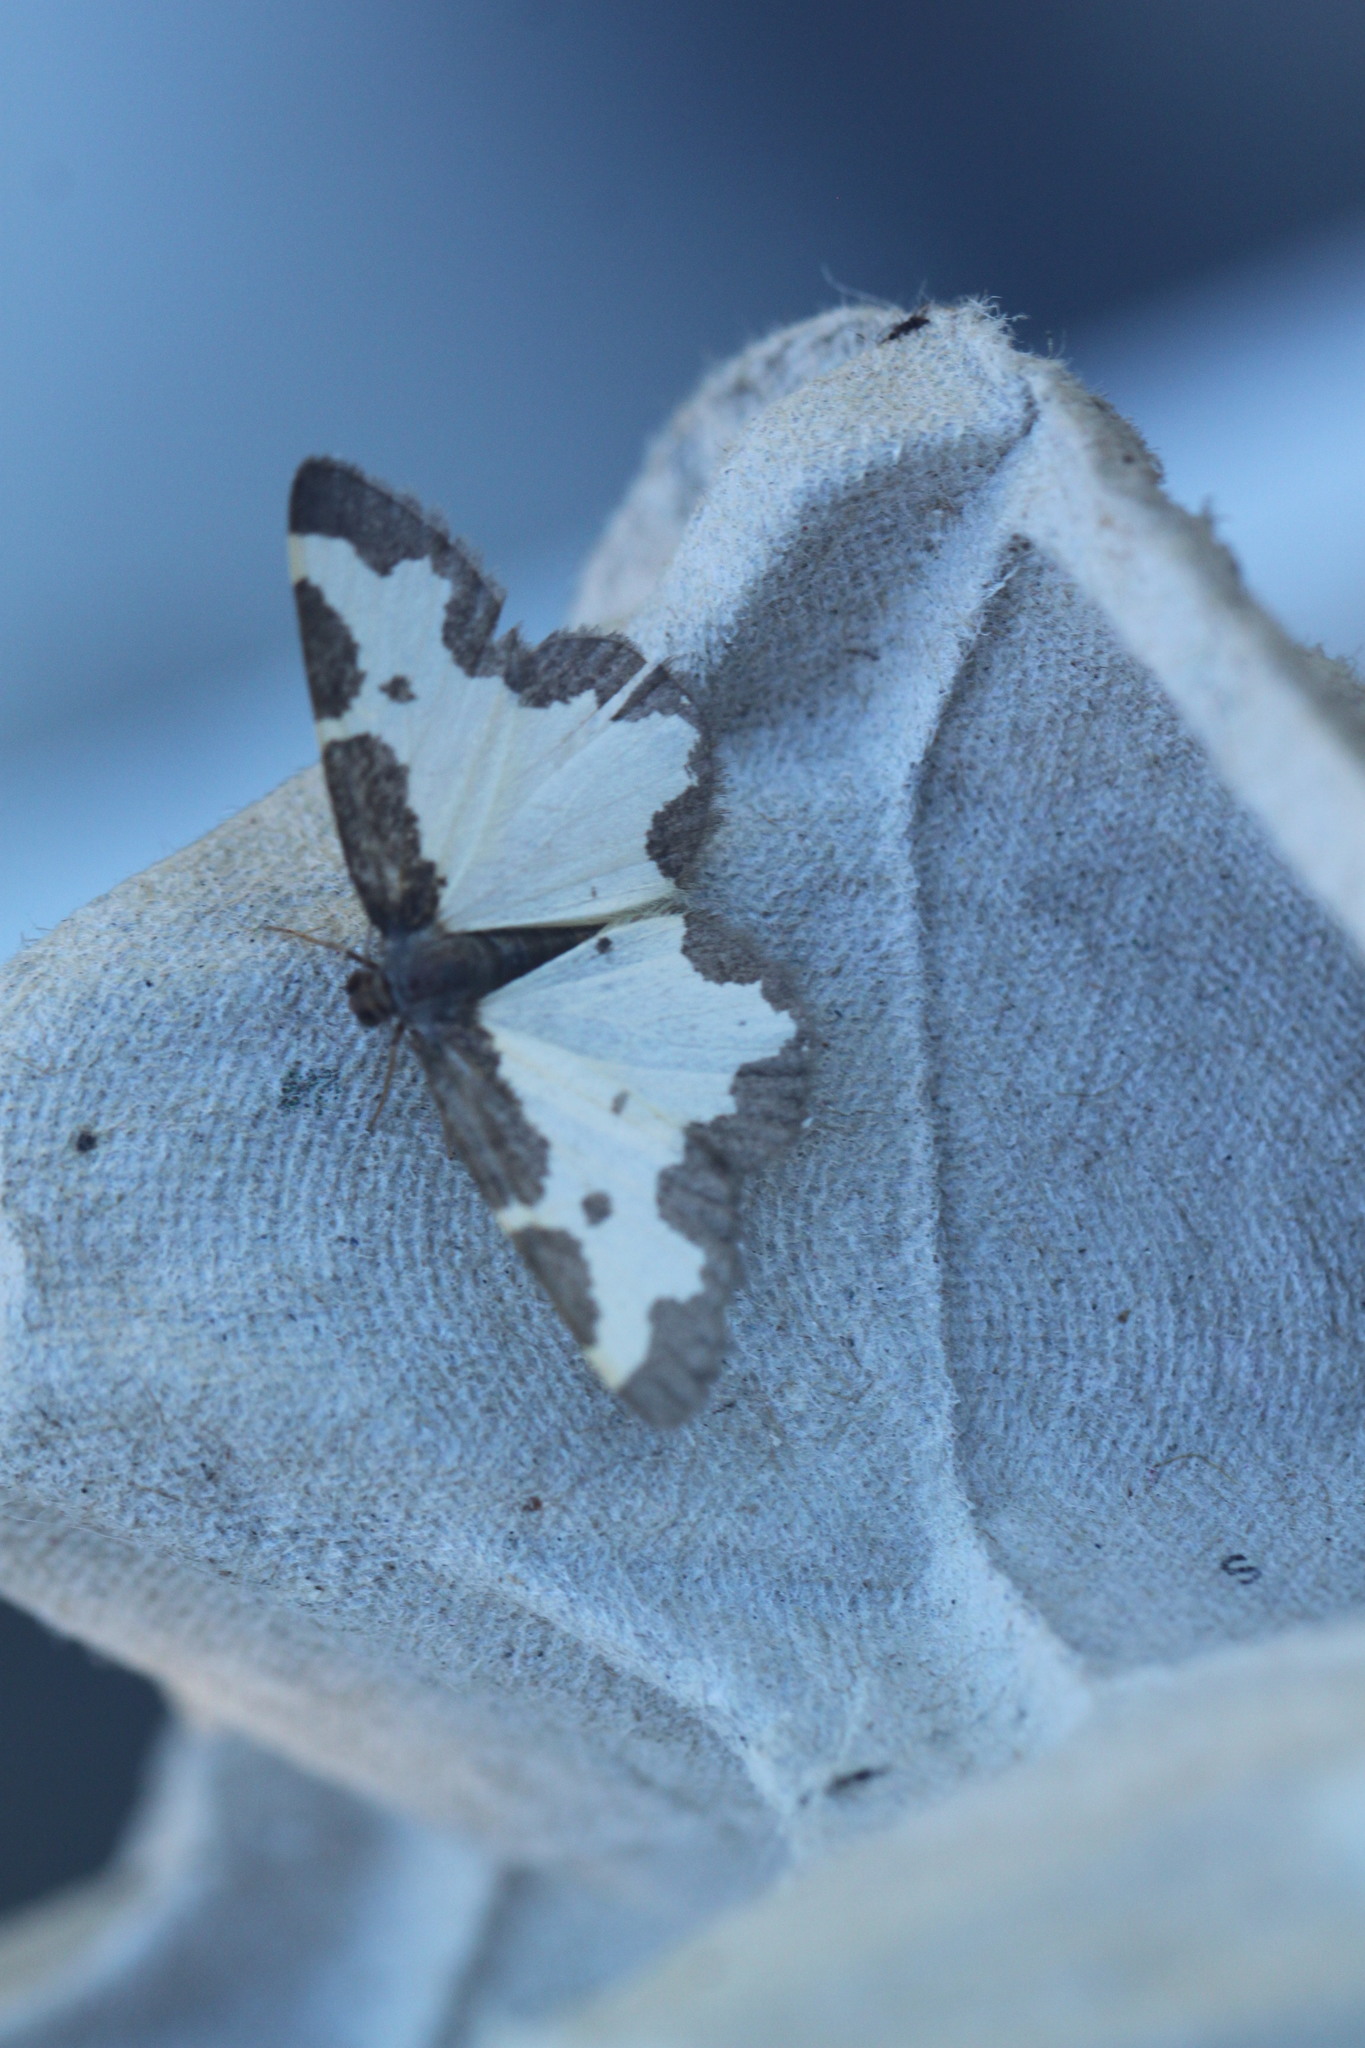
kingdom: Animalia
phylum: Arthropoda
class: Insecta
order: Lepidoptera
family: Geometridae
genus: Lomaspilis
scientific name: Lomaspilis marginata
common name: Clouded border
